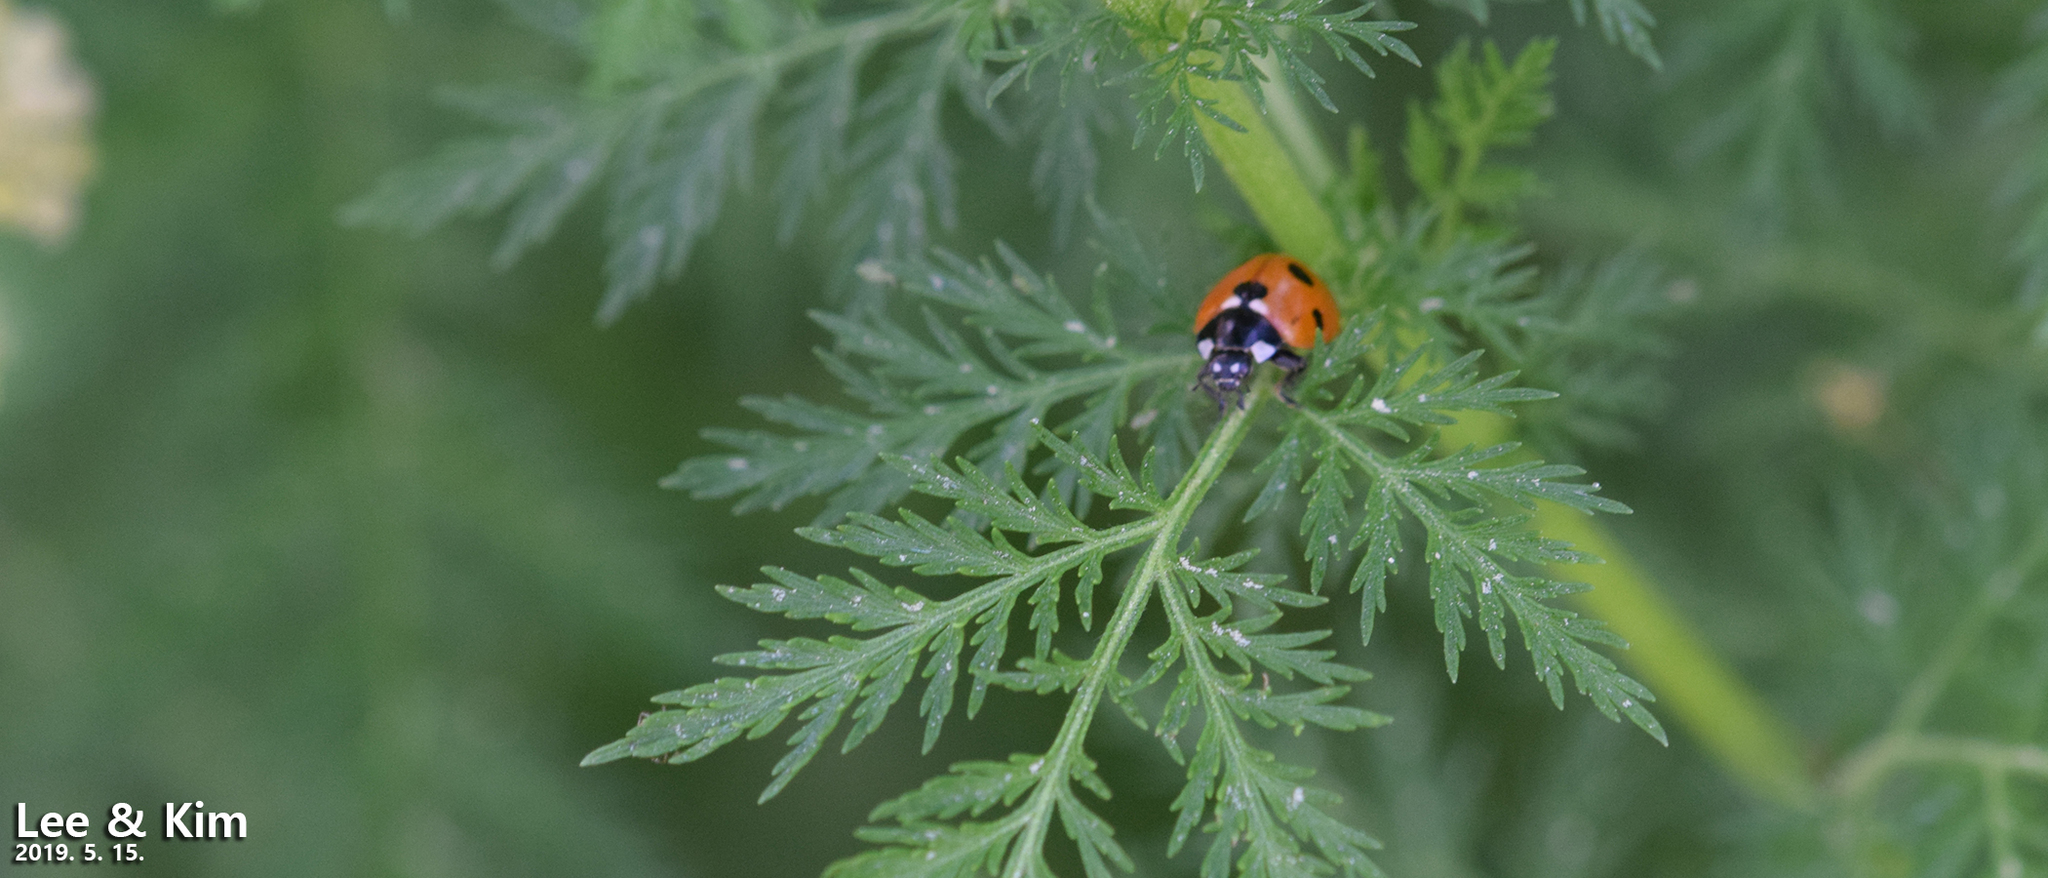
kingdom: Animalia
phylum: Arthropoda
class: Insecta
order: Coleoptera
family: Coccinellidae
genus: Coccinella
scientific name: Coccinella septempunctata
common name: Sevenspotted lady beetle
